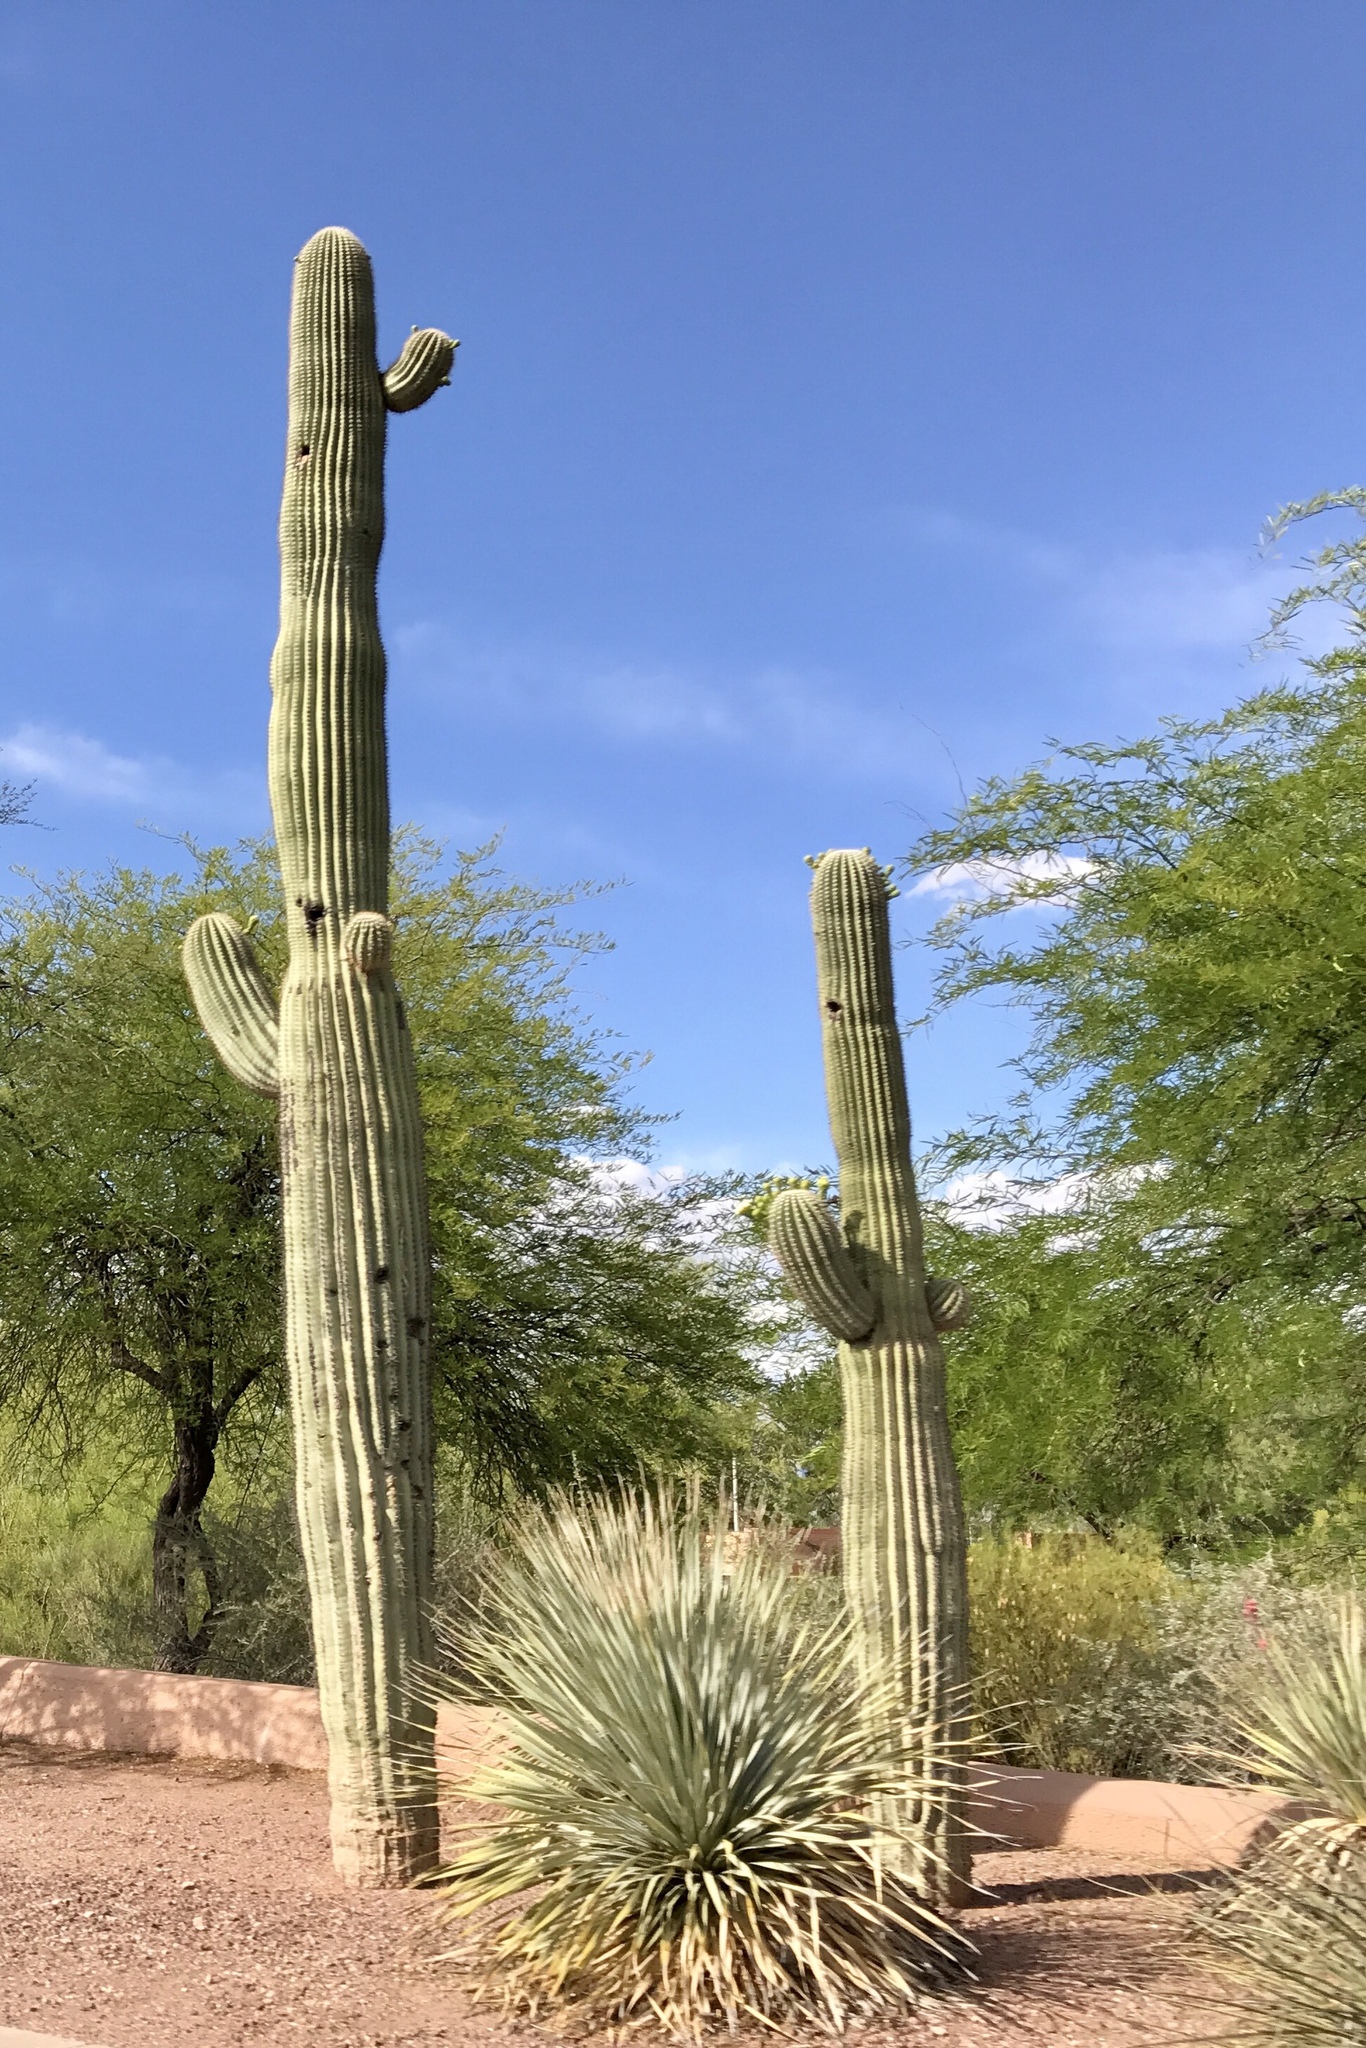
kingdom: Plantae
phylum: Tracheophyta
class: Magnoliopsida
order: Caryophyllales
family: Cactaceae
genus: Carnegiea
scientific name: Carnegiea gigantea
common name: Saguaro
